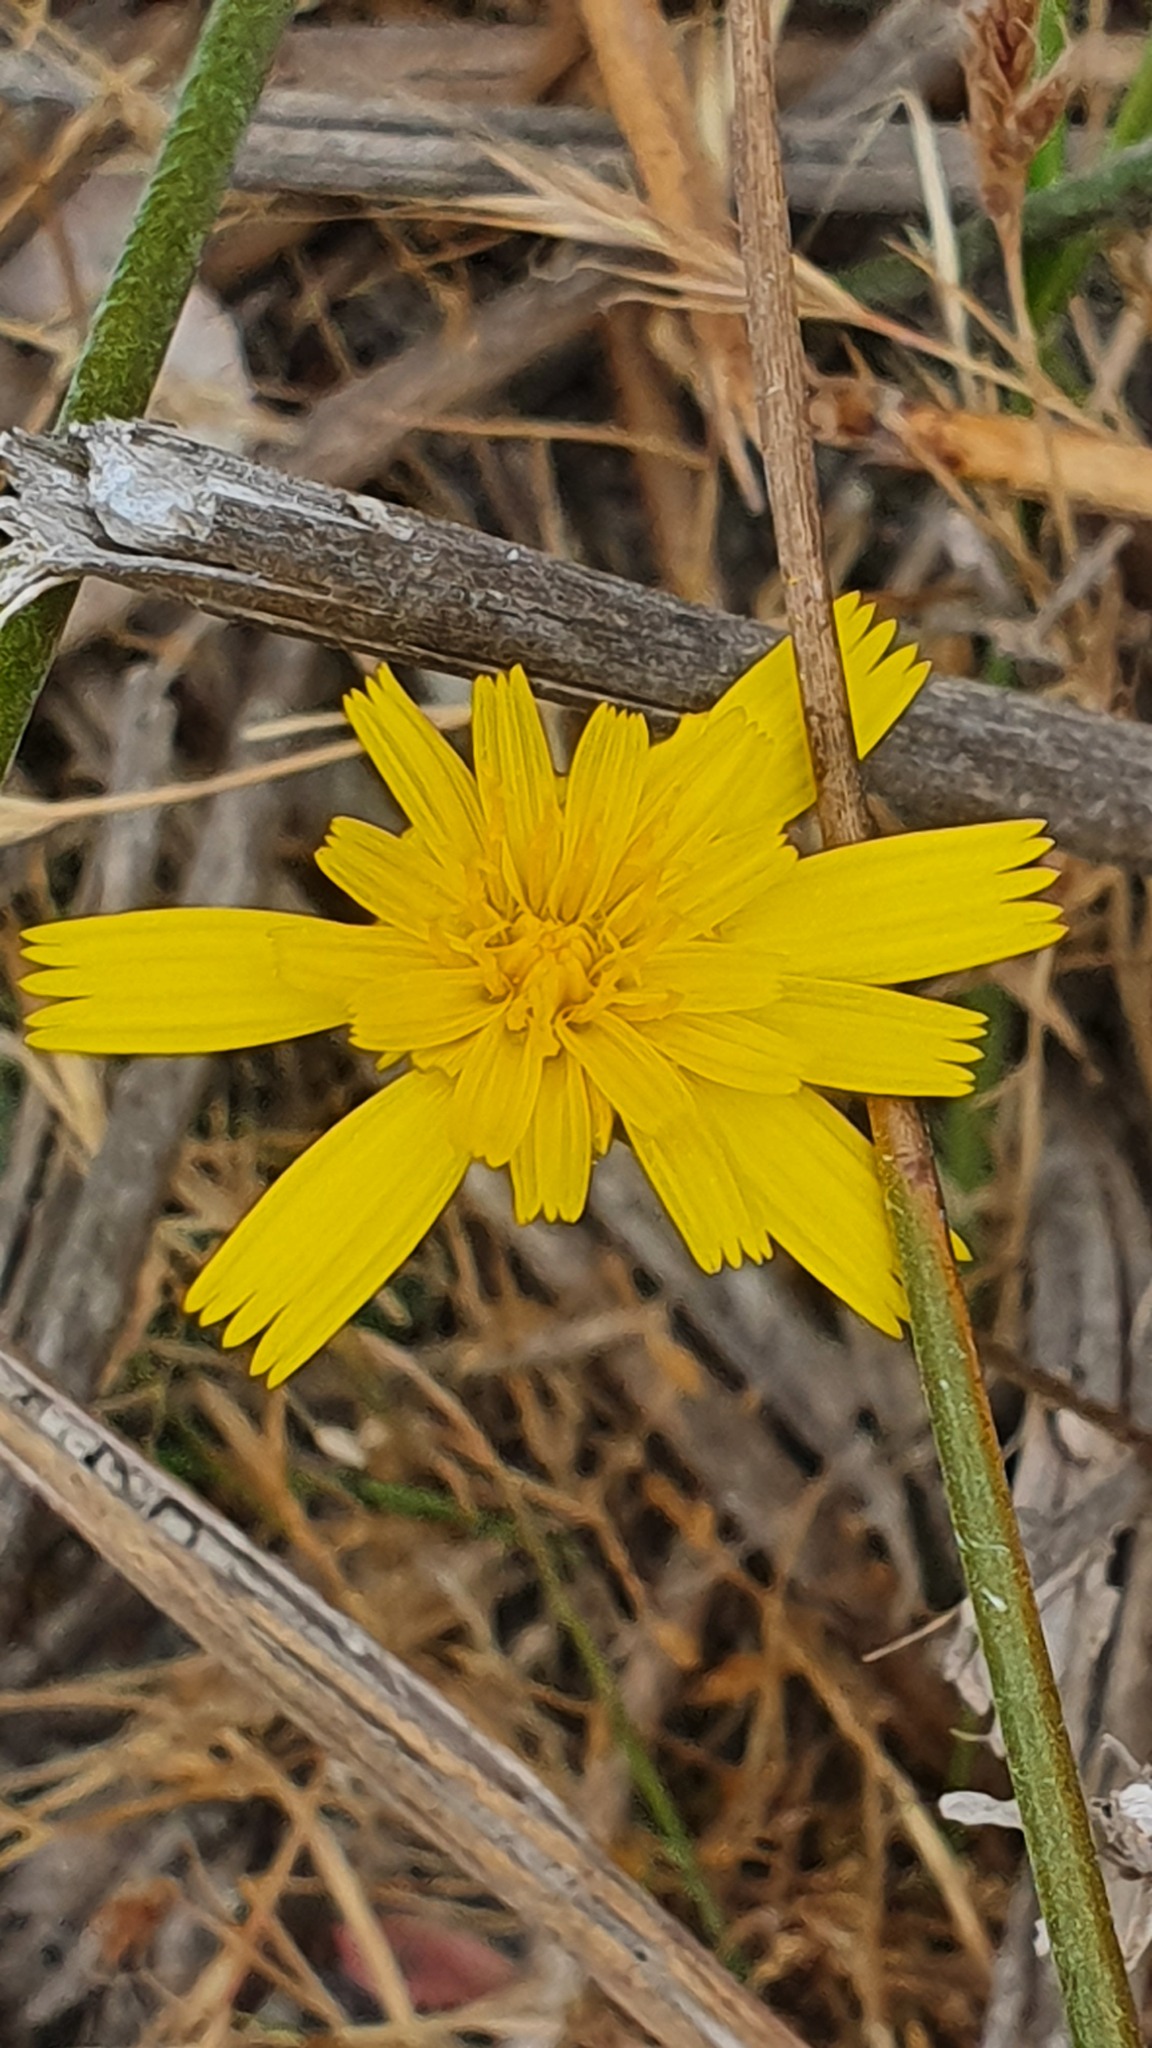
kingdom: Plantae
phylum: Tracheophyta
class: Magnoliopsida
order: Asterales
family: Asteraceae
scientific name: Asteraceae
